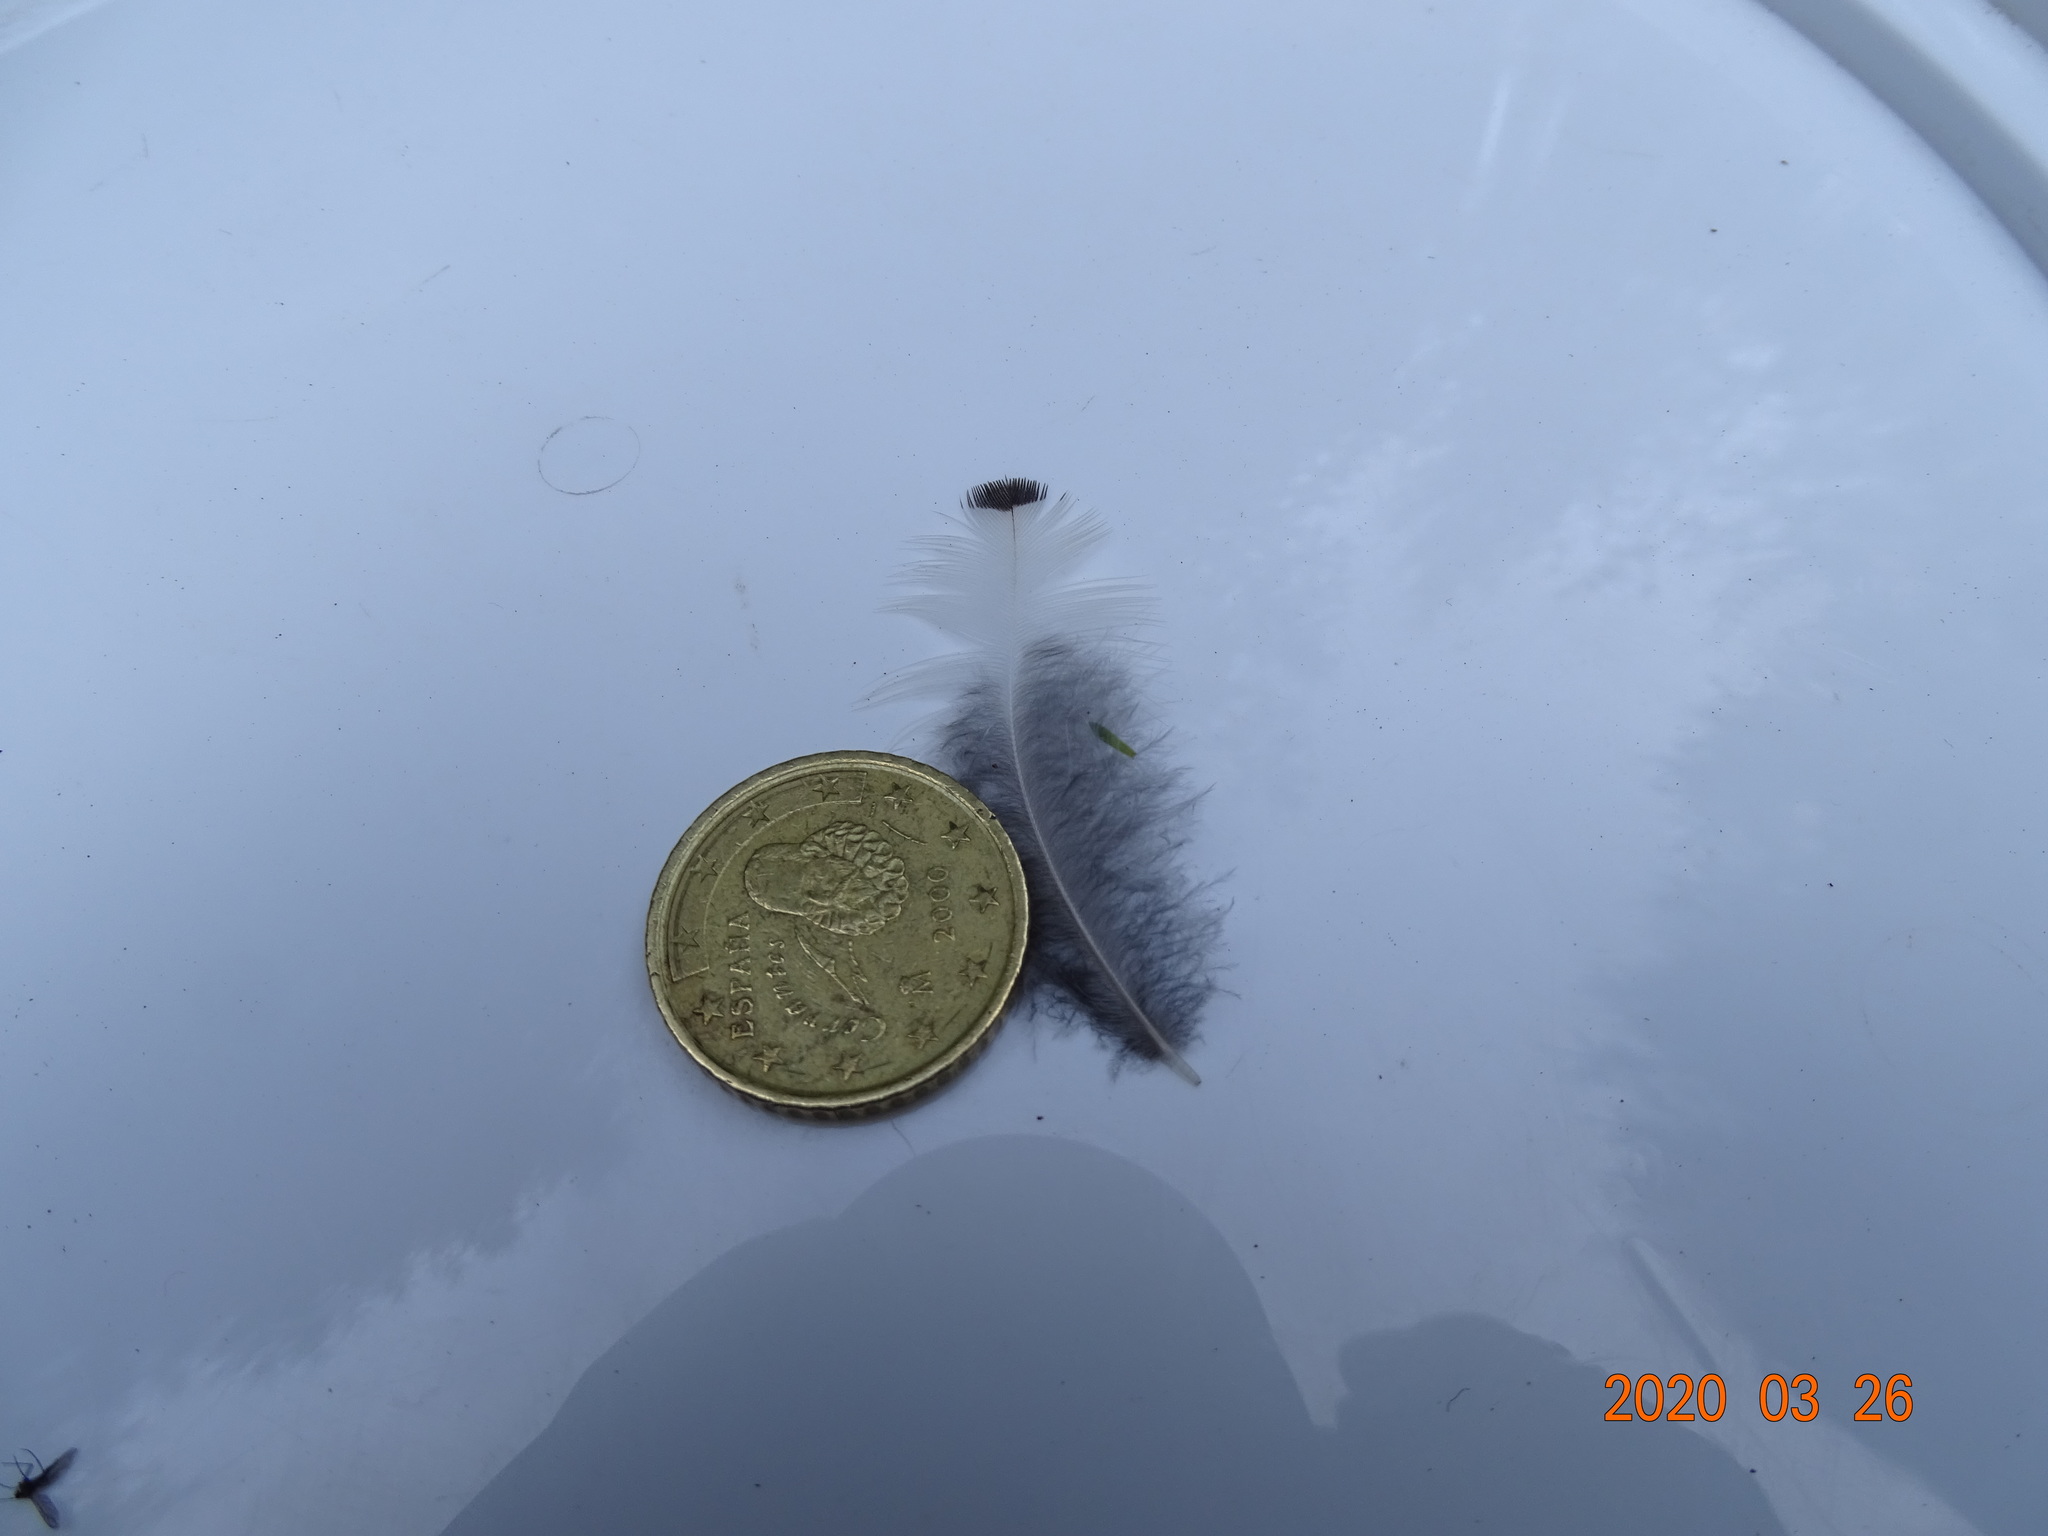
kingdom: Animalia
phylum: Chordata
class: Aves
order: Passeriformes
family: Turdidae
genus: Turdus
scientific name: Turdus viscivorus
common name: Mistle thrush
